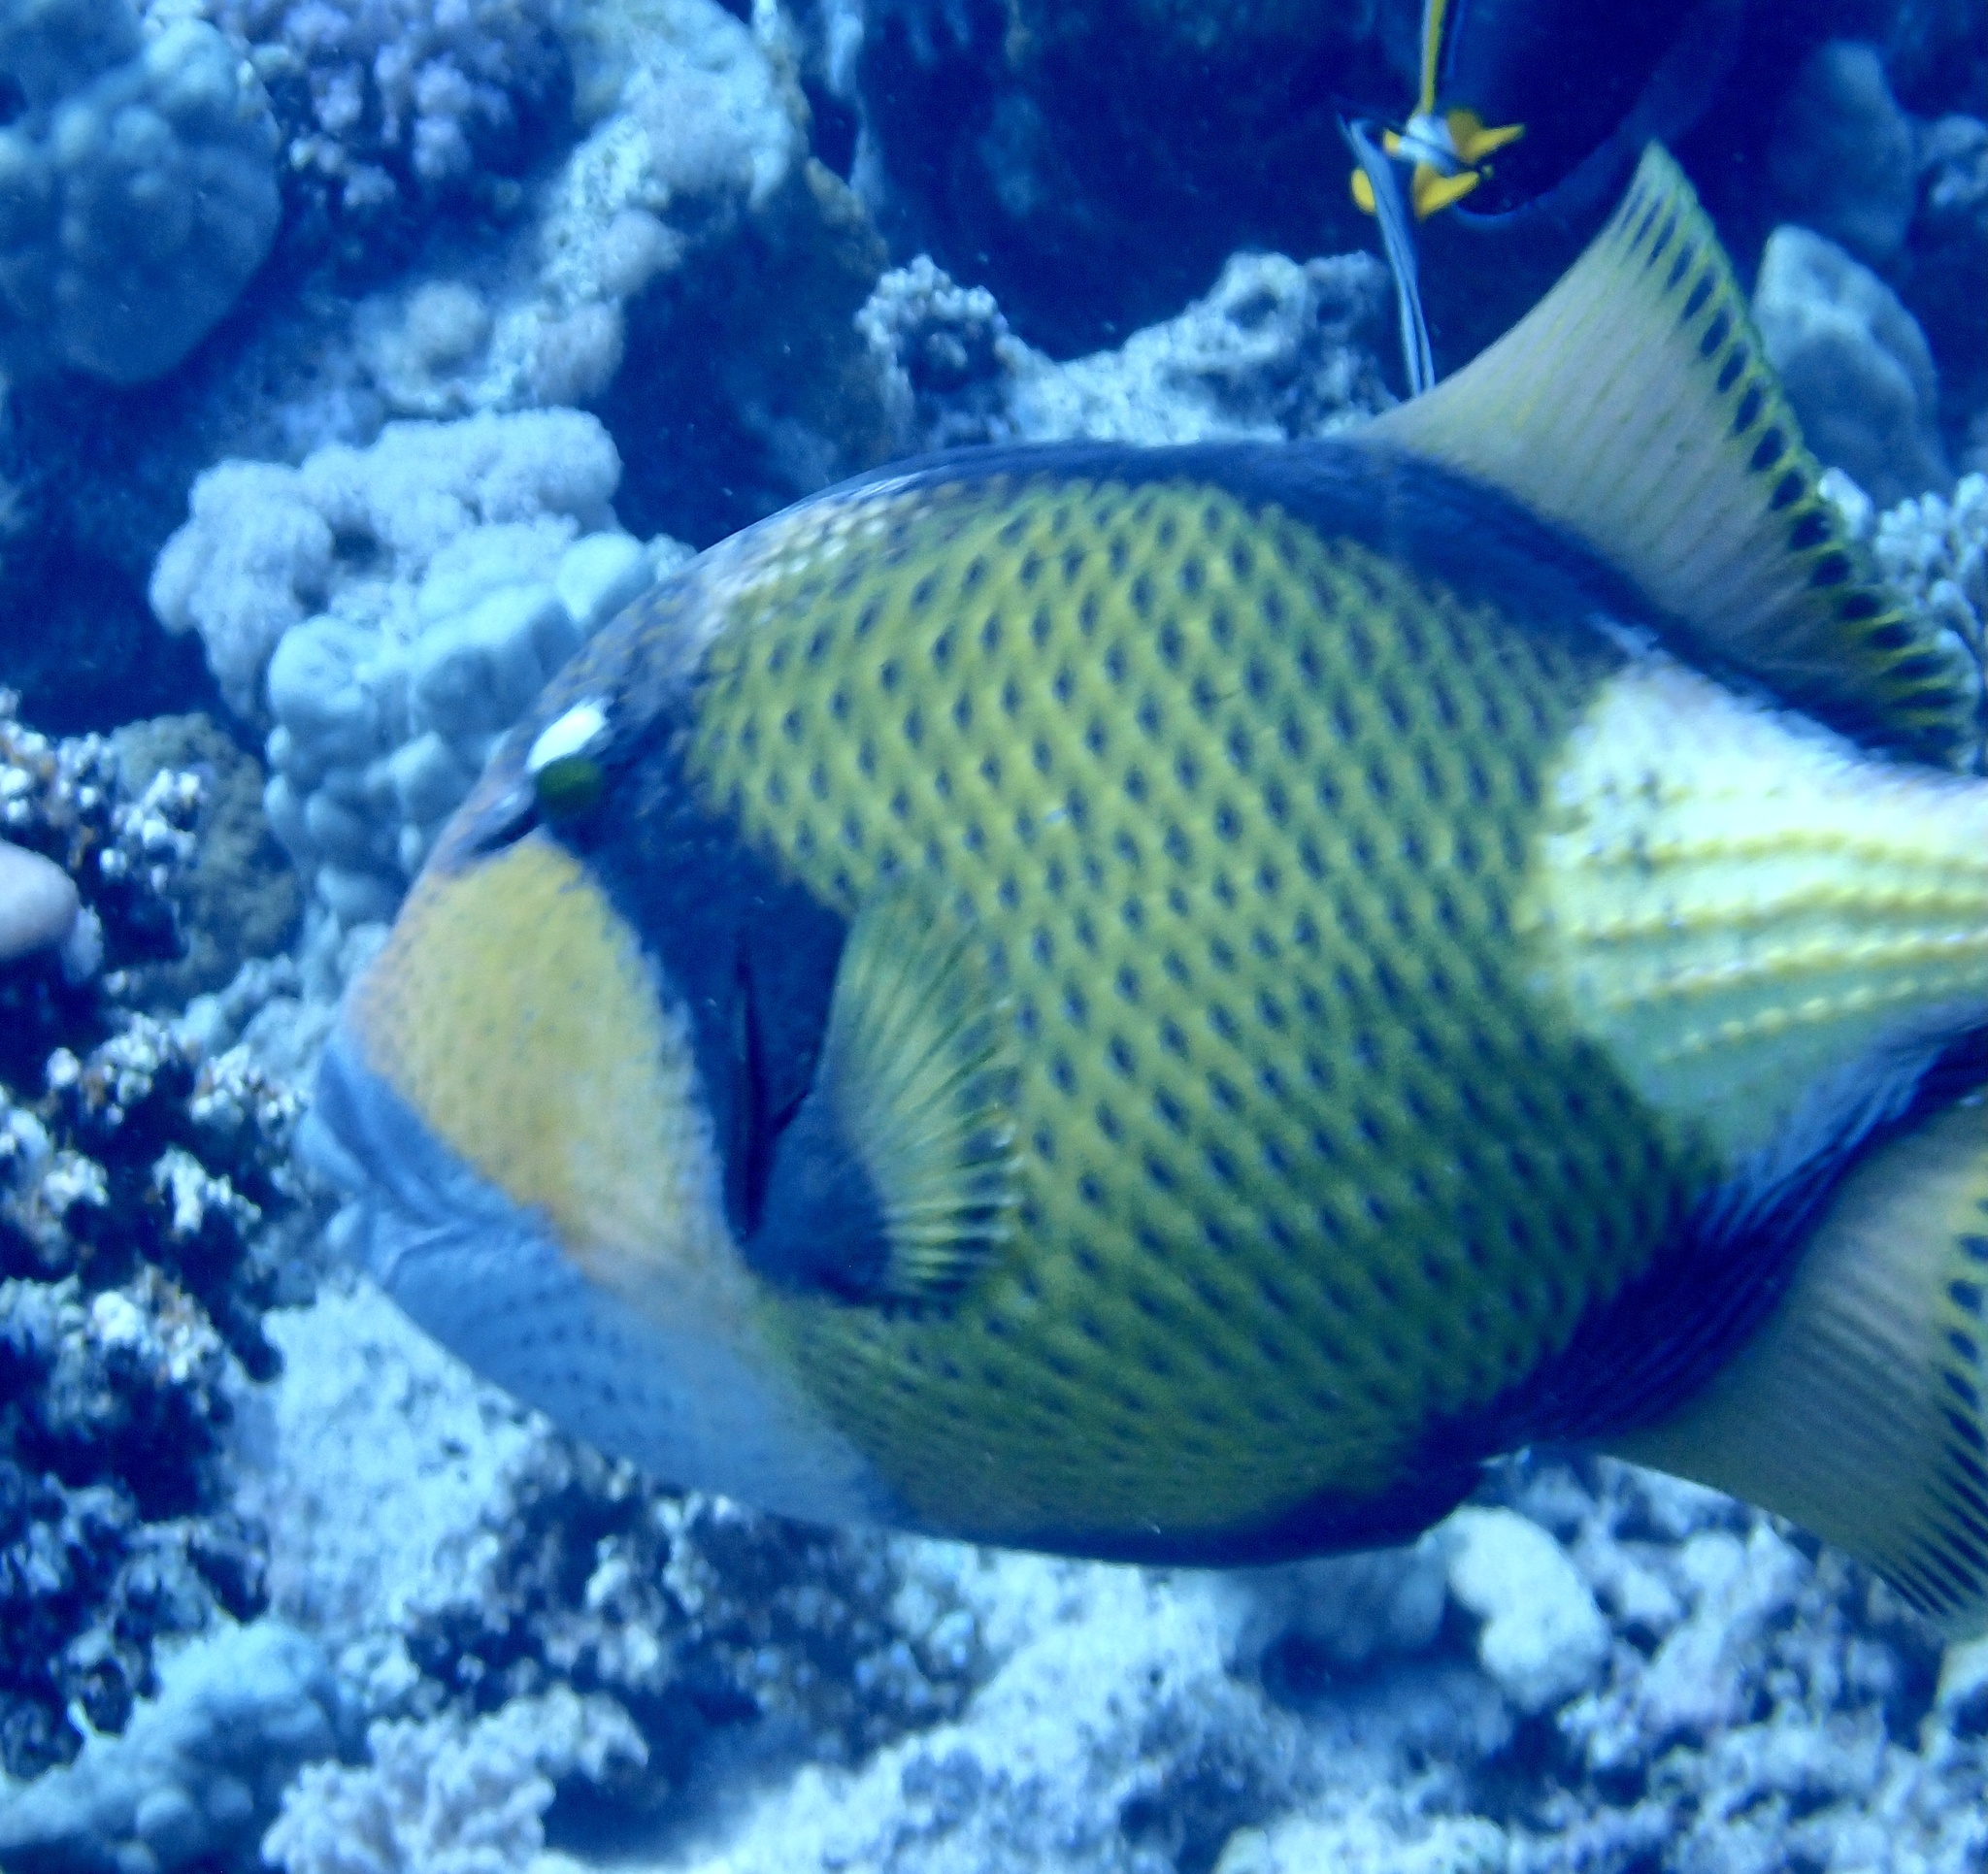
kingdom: Animalia
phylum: Chordata
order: Tetraodontiformes
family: Balistidae
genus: Balistoides
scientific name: Balistoides viridescens
